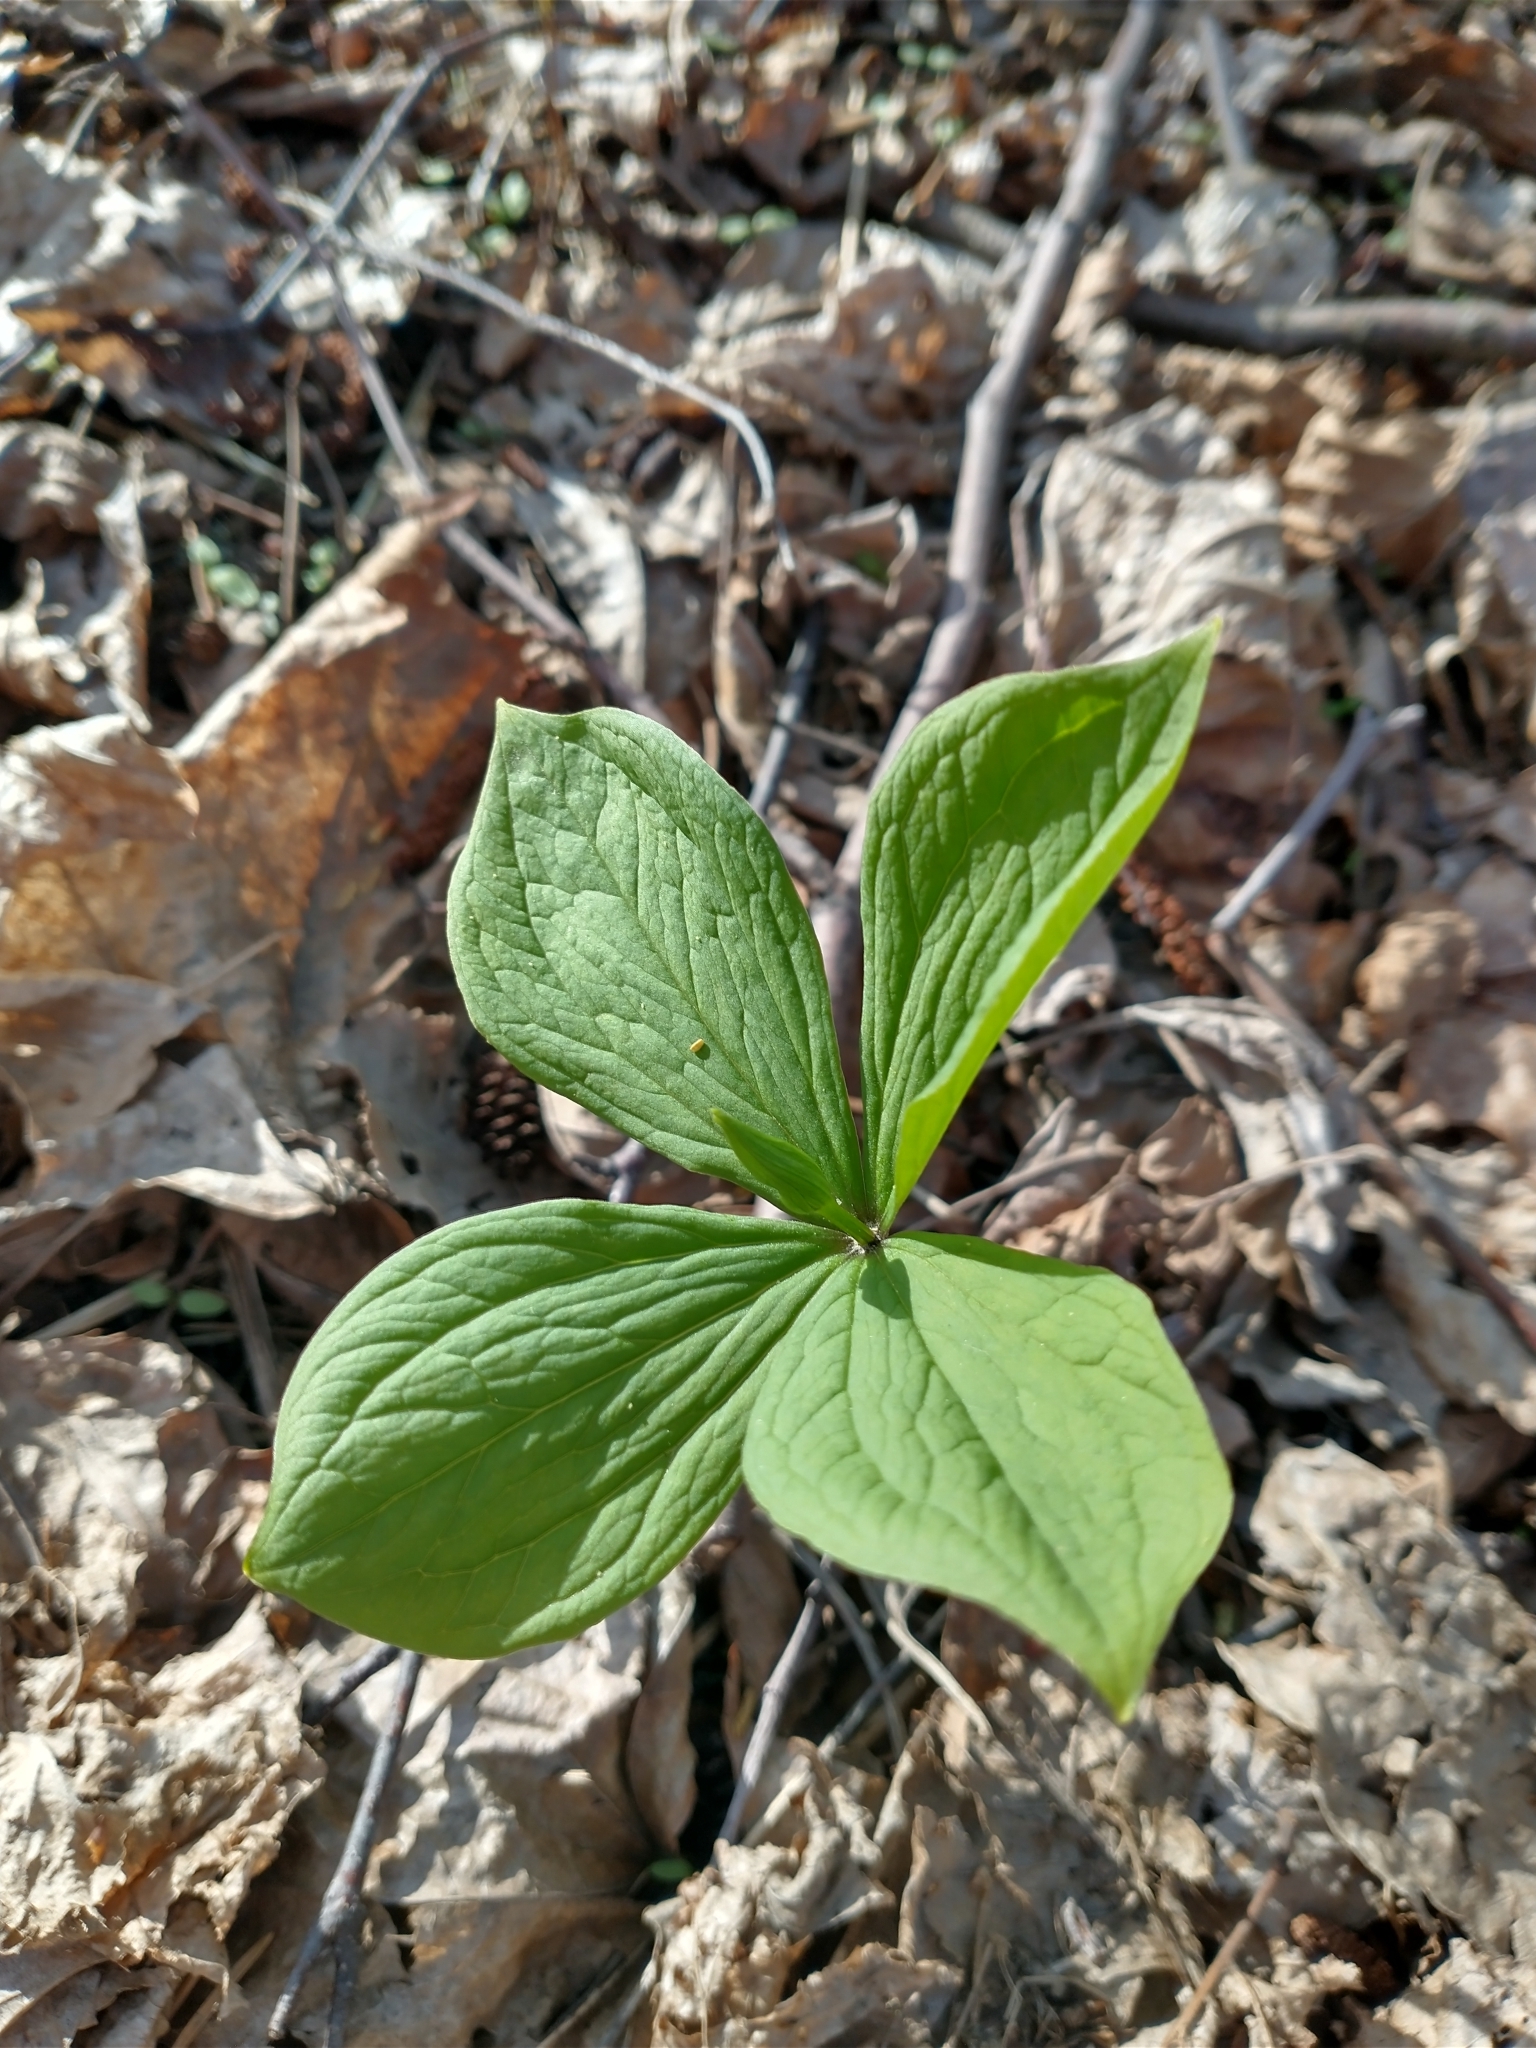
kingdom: Plantae
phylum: Tracheophyta
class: Liliopsida
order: Liliales
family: Melanthiaceae
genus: Paris
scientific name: Paris quadrifolia
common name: Herb-paris
